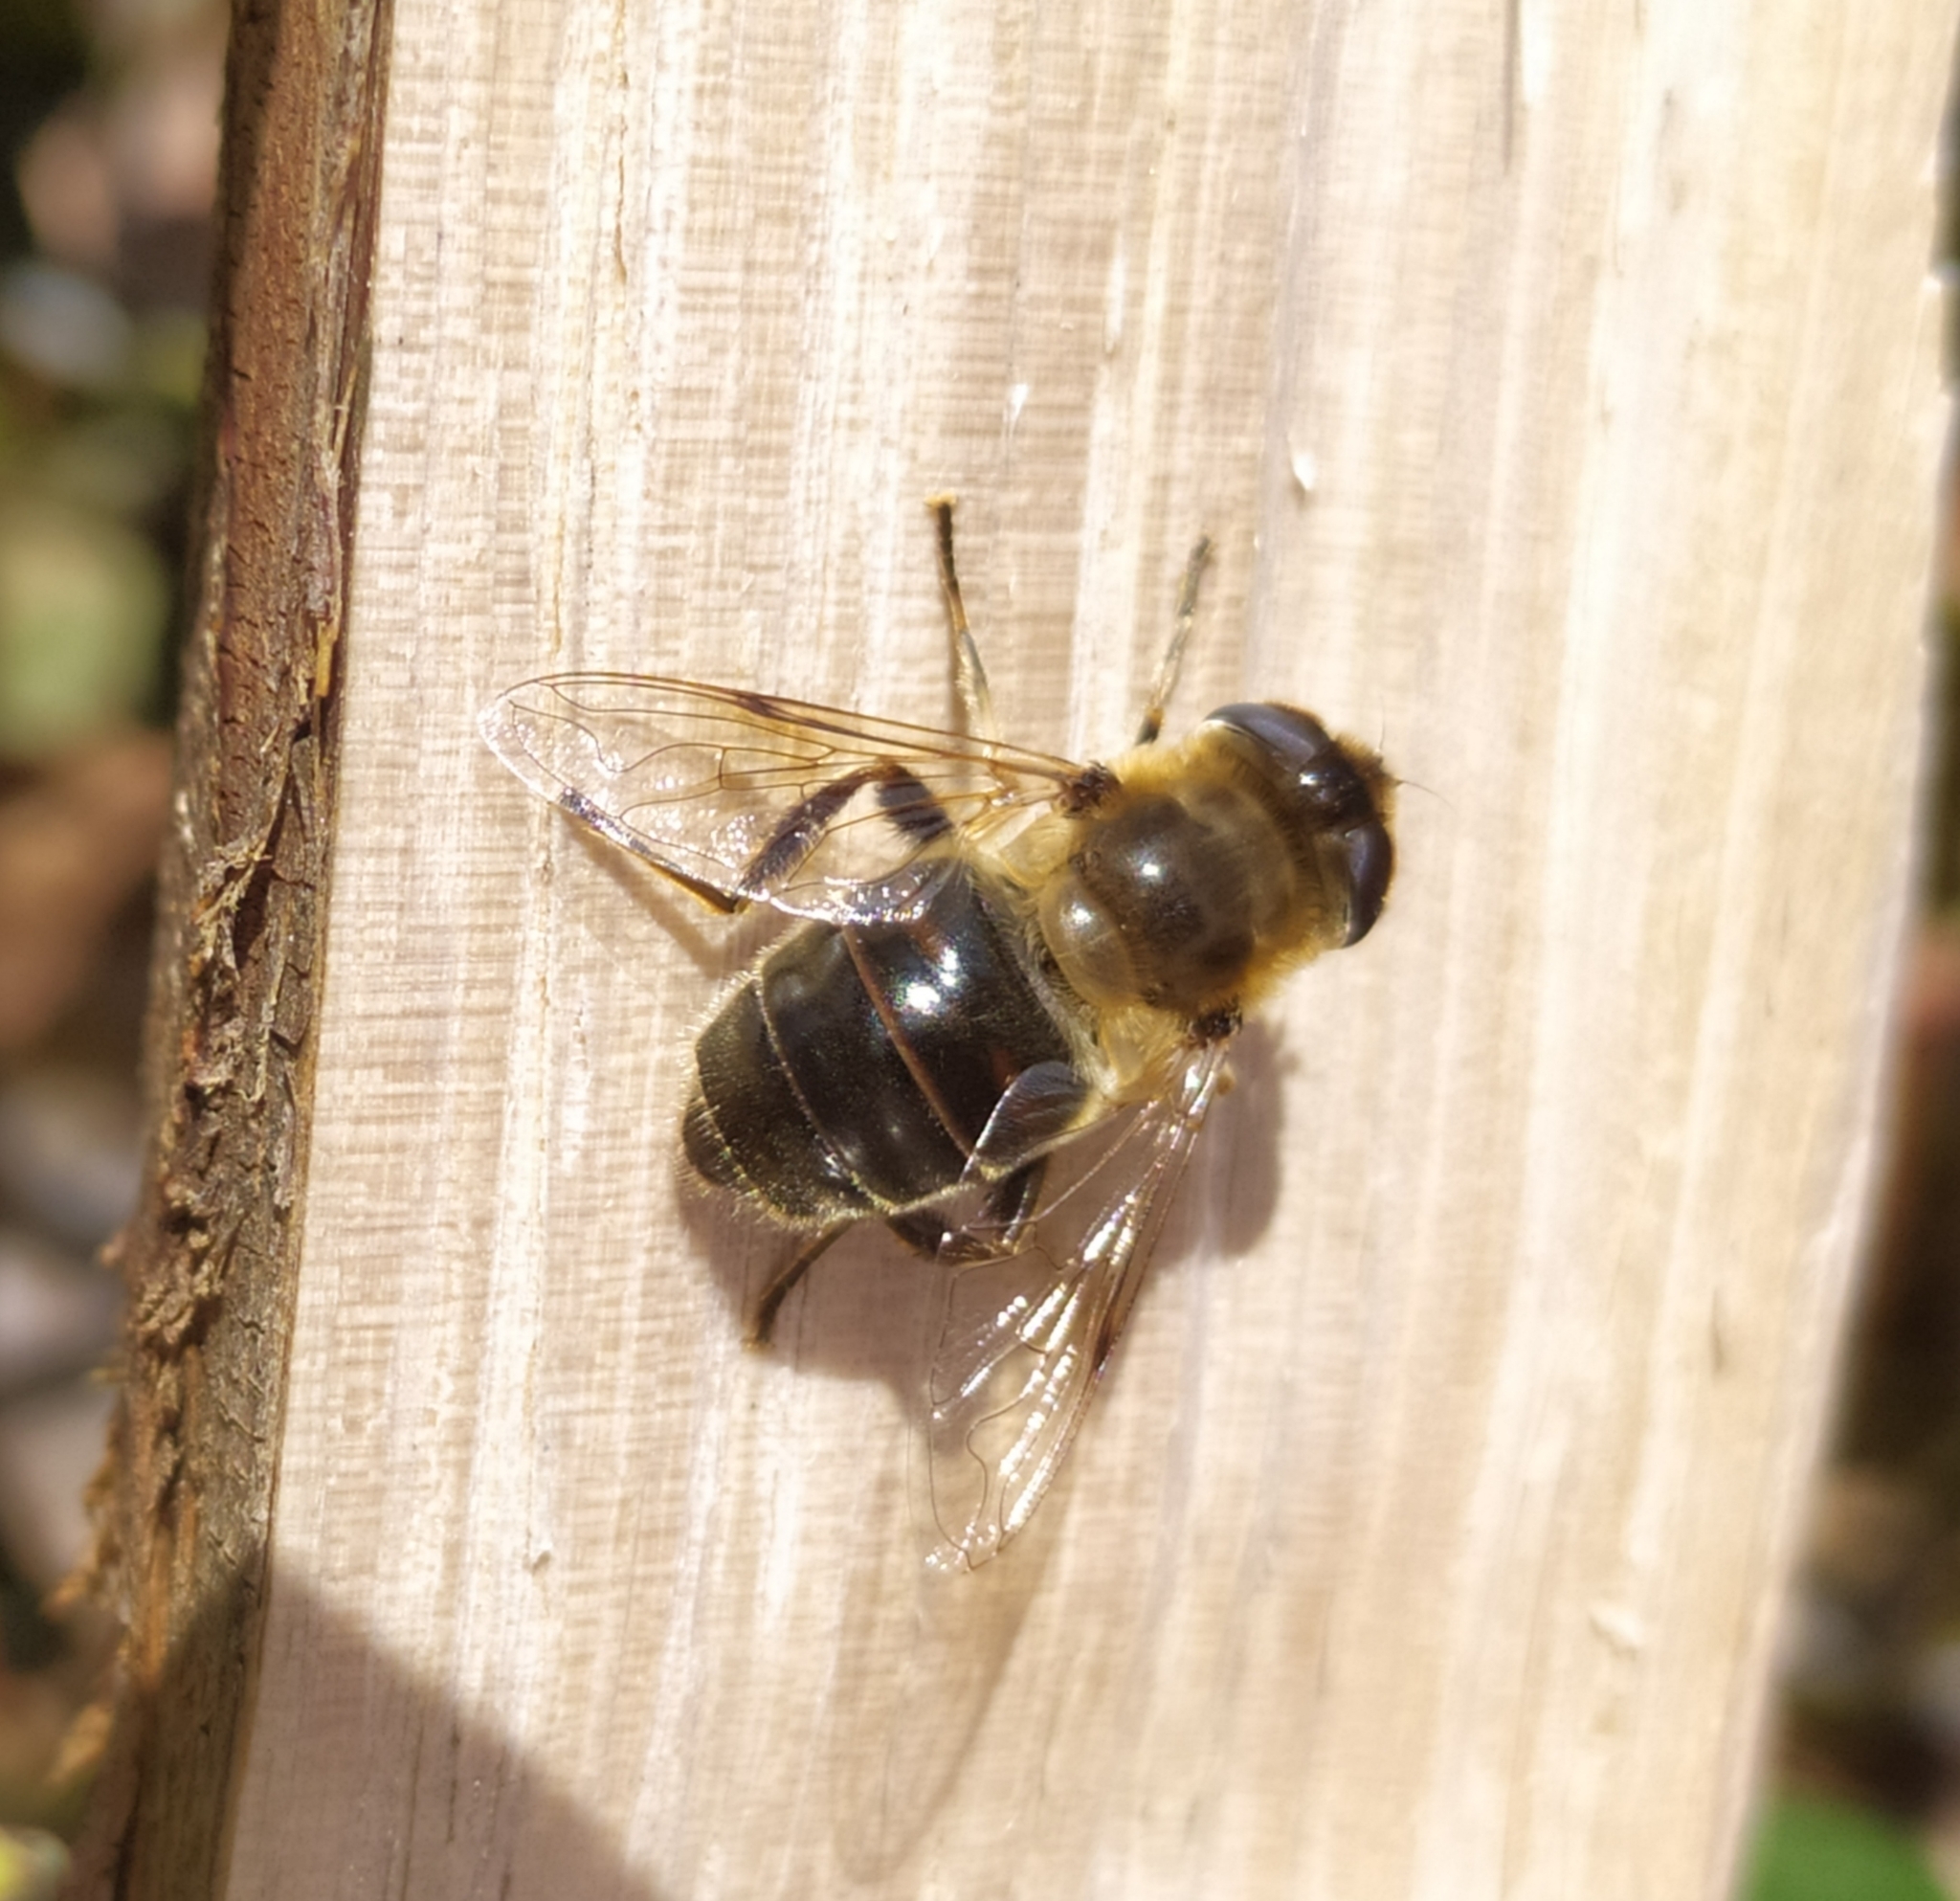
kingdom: Animalia
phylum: Arthropoda
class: Insecta
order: Diptera
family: Syrphidae
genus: Eristalis
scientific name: Eristalis tenax
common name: Drone fly
